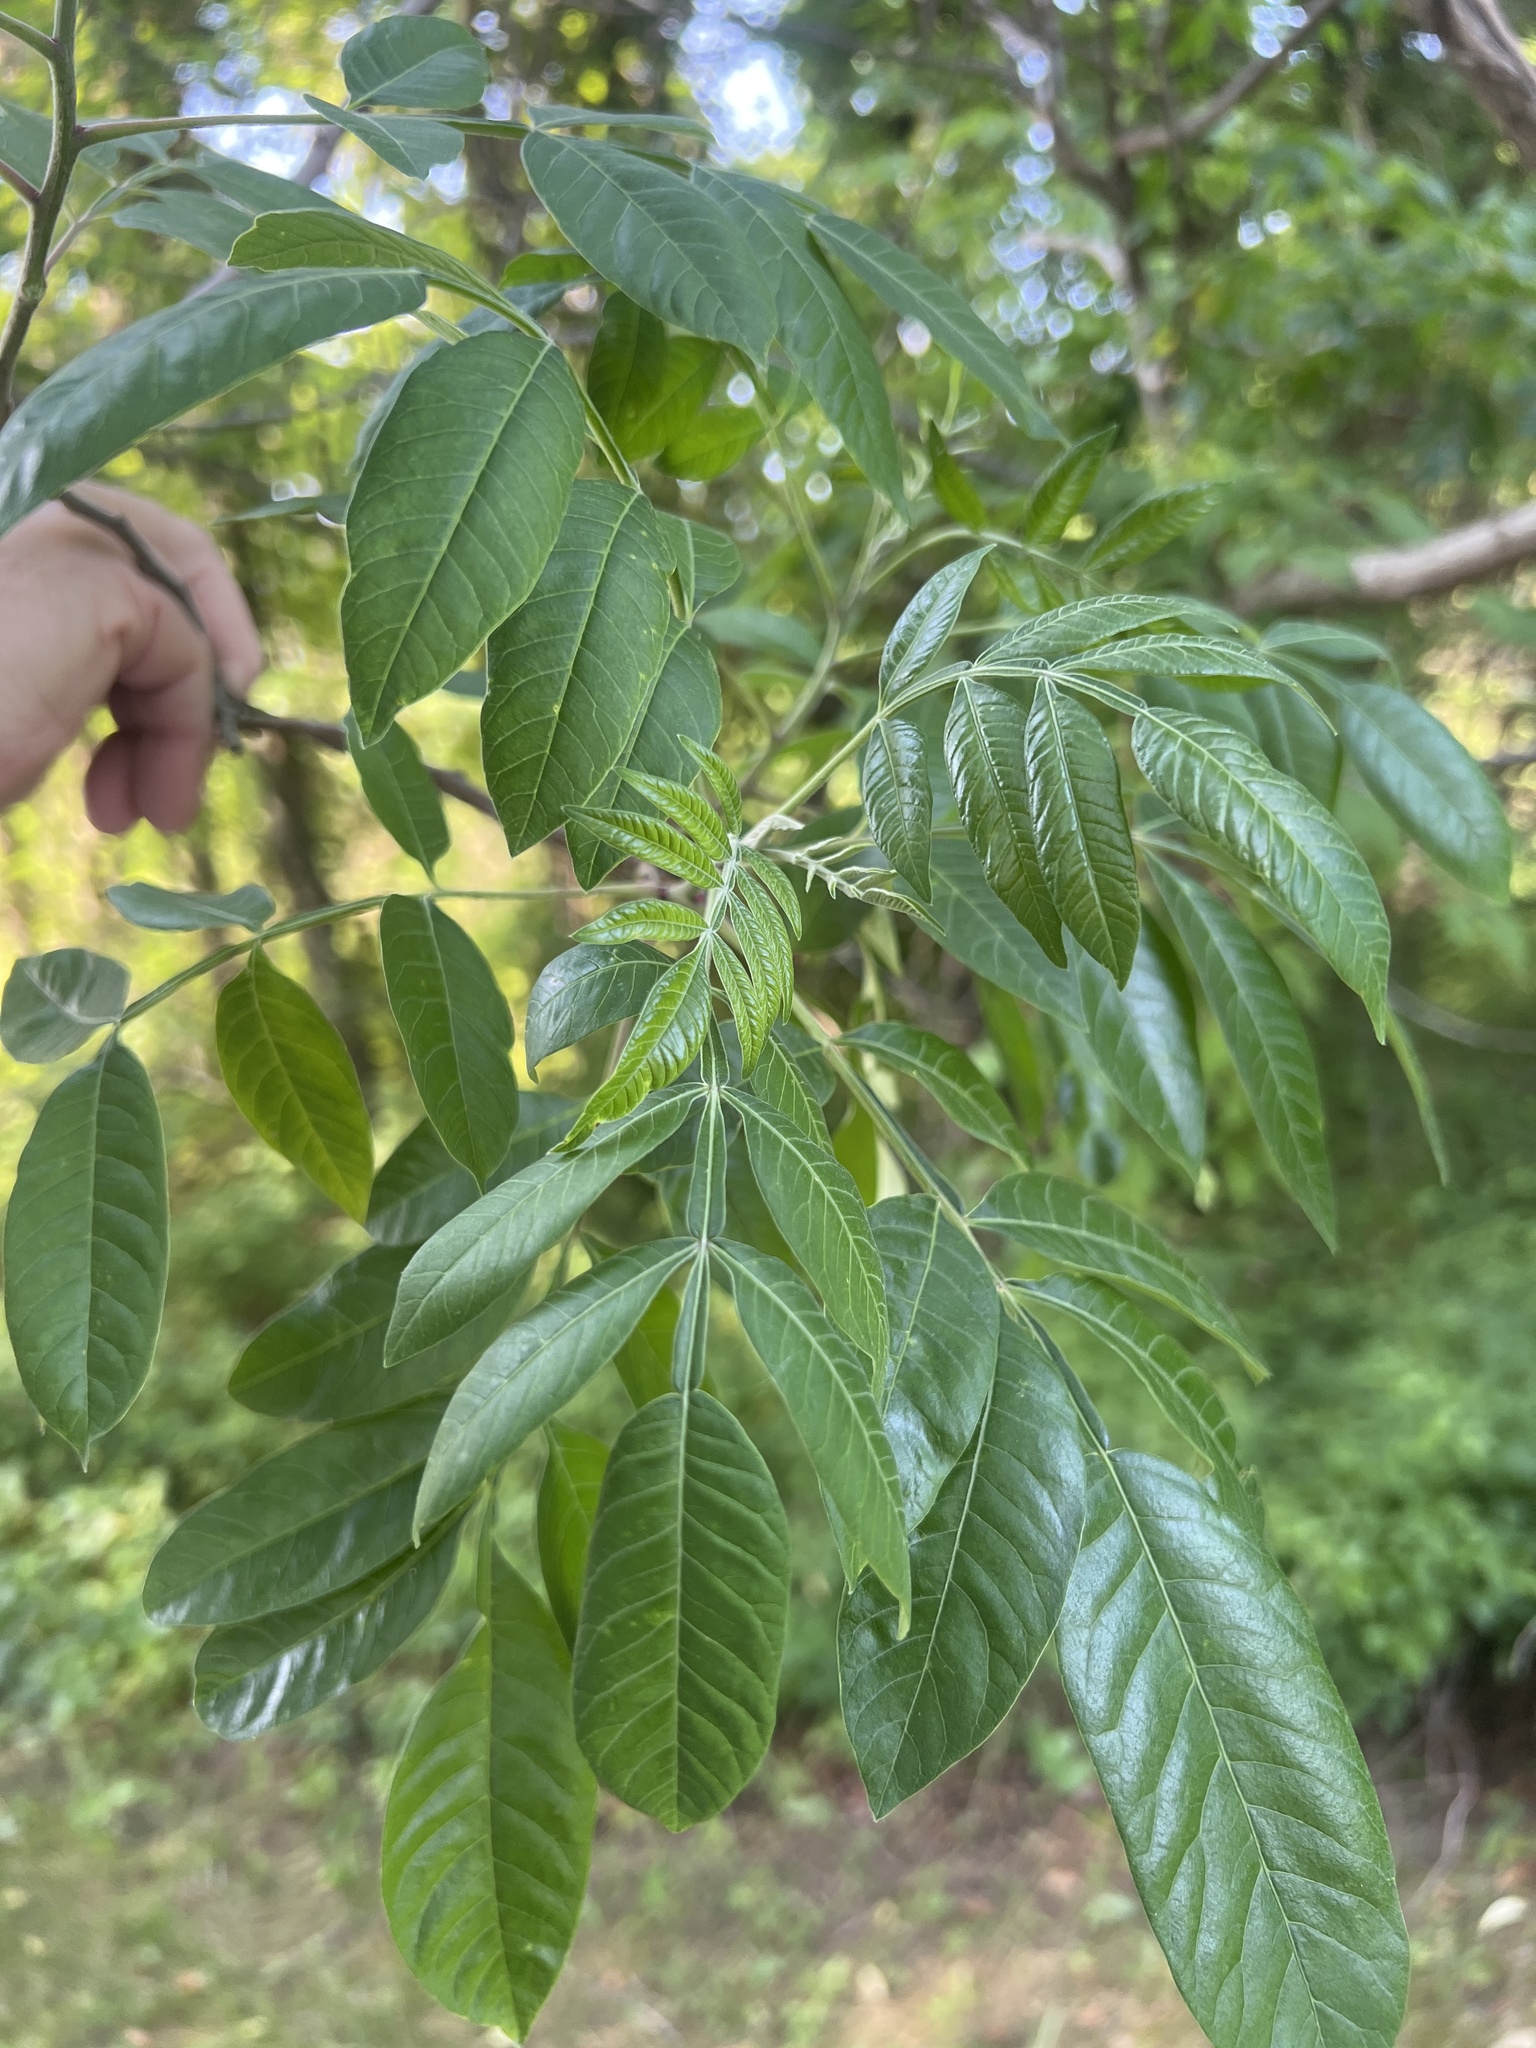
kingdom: Plantae
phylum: Tracheophyta
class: Magnoliopsida
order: Sapindales
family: Anacardiaceae
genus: Rhus
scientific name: Rhus copallina
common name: Shining sumac
